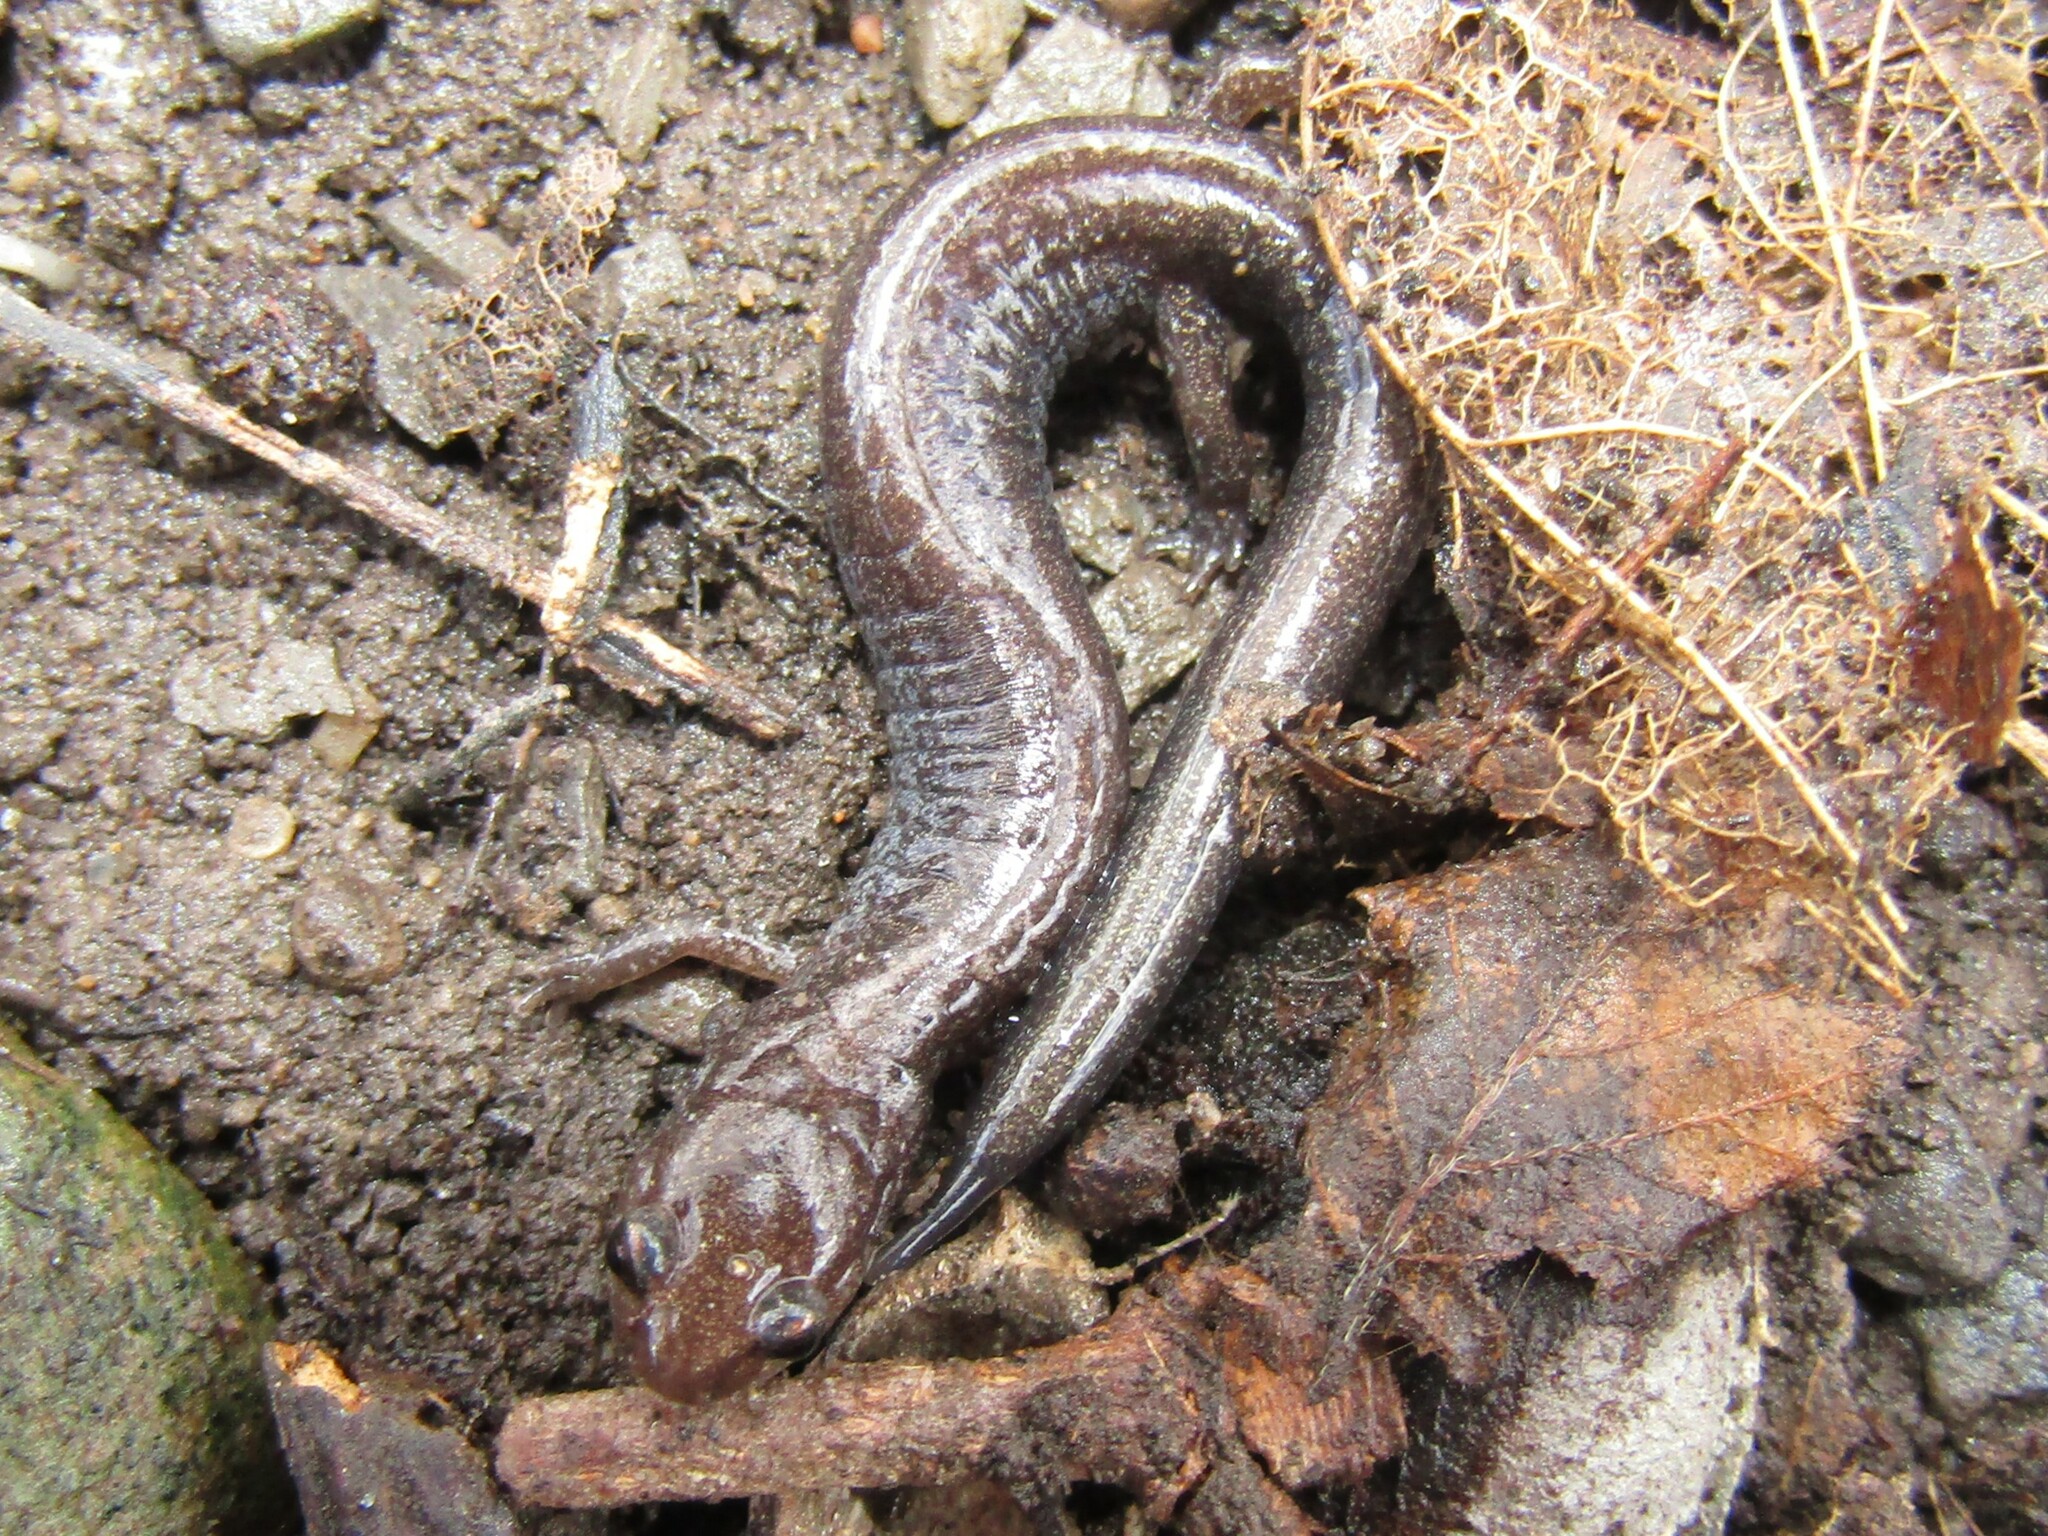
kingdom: Animalia
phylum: Chordata
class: Amphibia
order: Caudata
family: Plethodontidae
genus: Plethodon
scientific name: Plethodon cinereus
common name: Redback salamander
